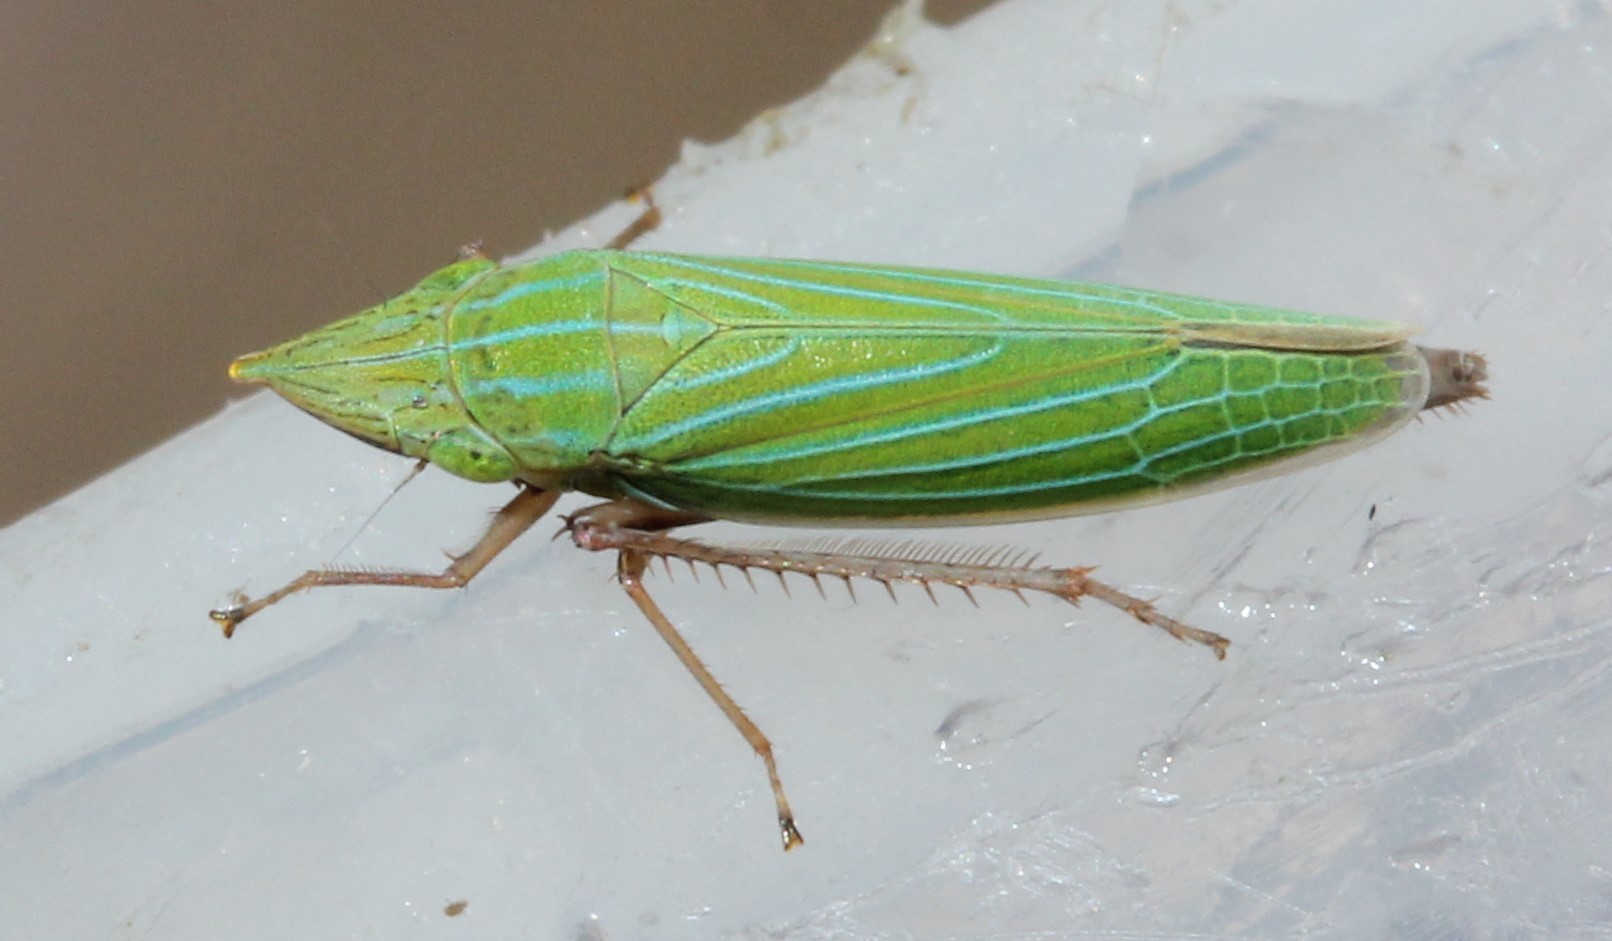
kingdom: Animalia
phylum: Arthropoda
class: Insecta
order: Hemiptera
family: Cicadellidae
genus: Draeculacephala
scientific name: Draeculacephala producta
